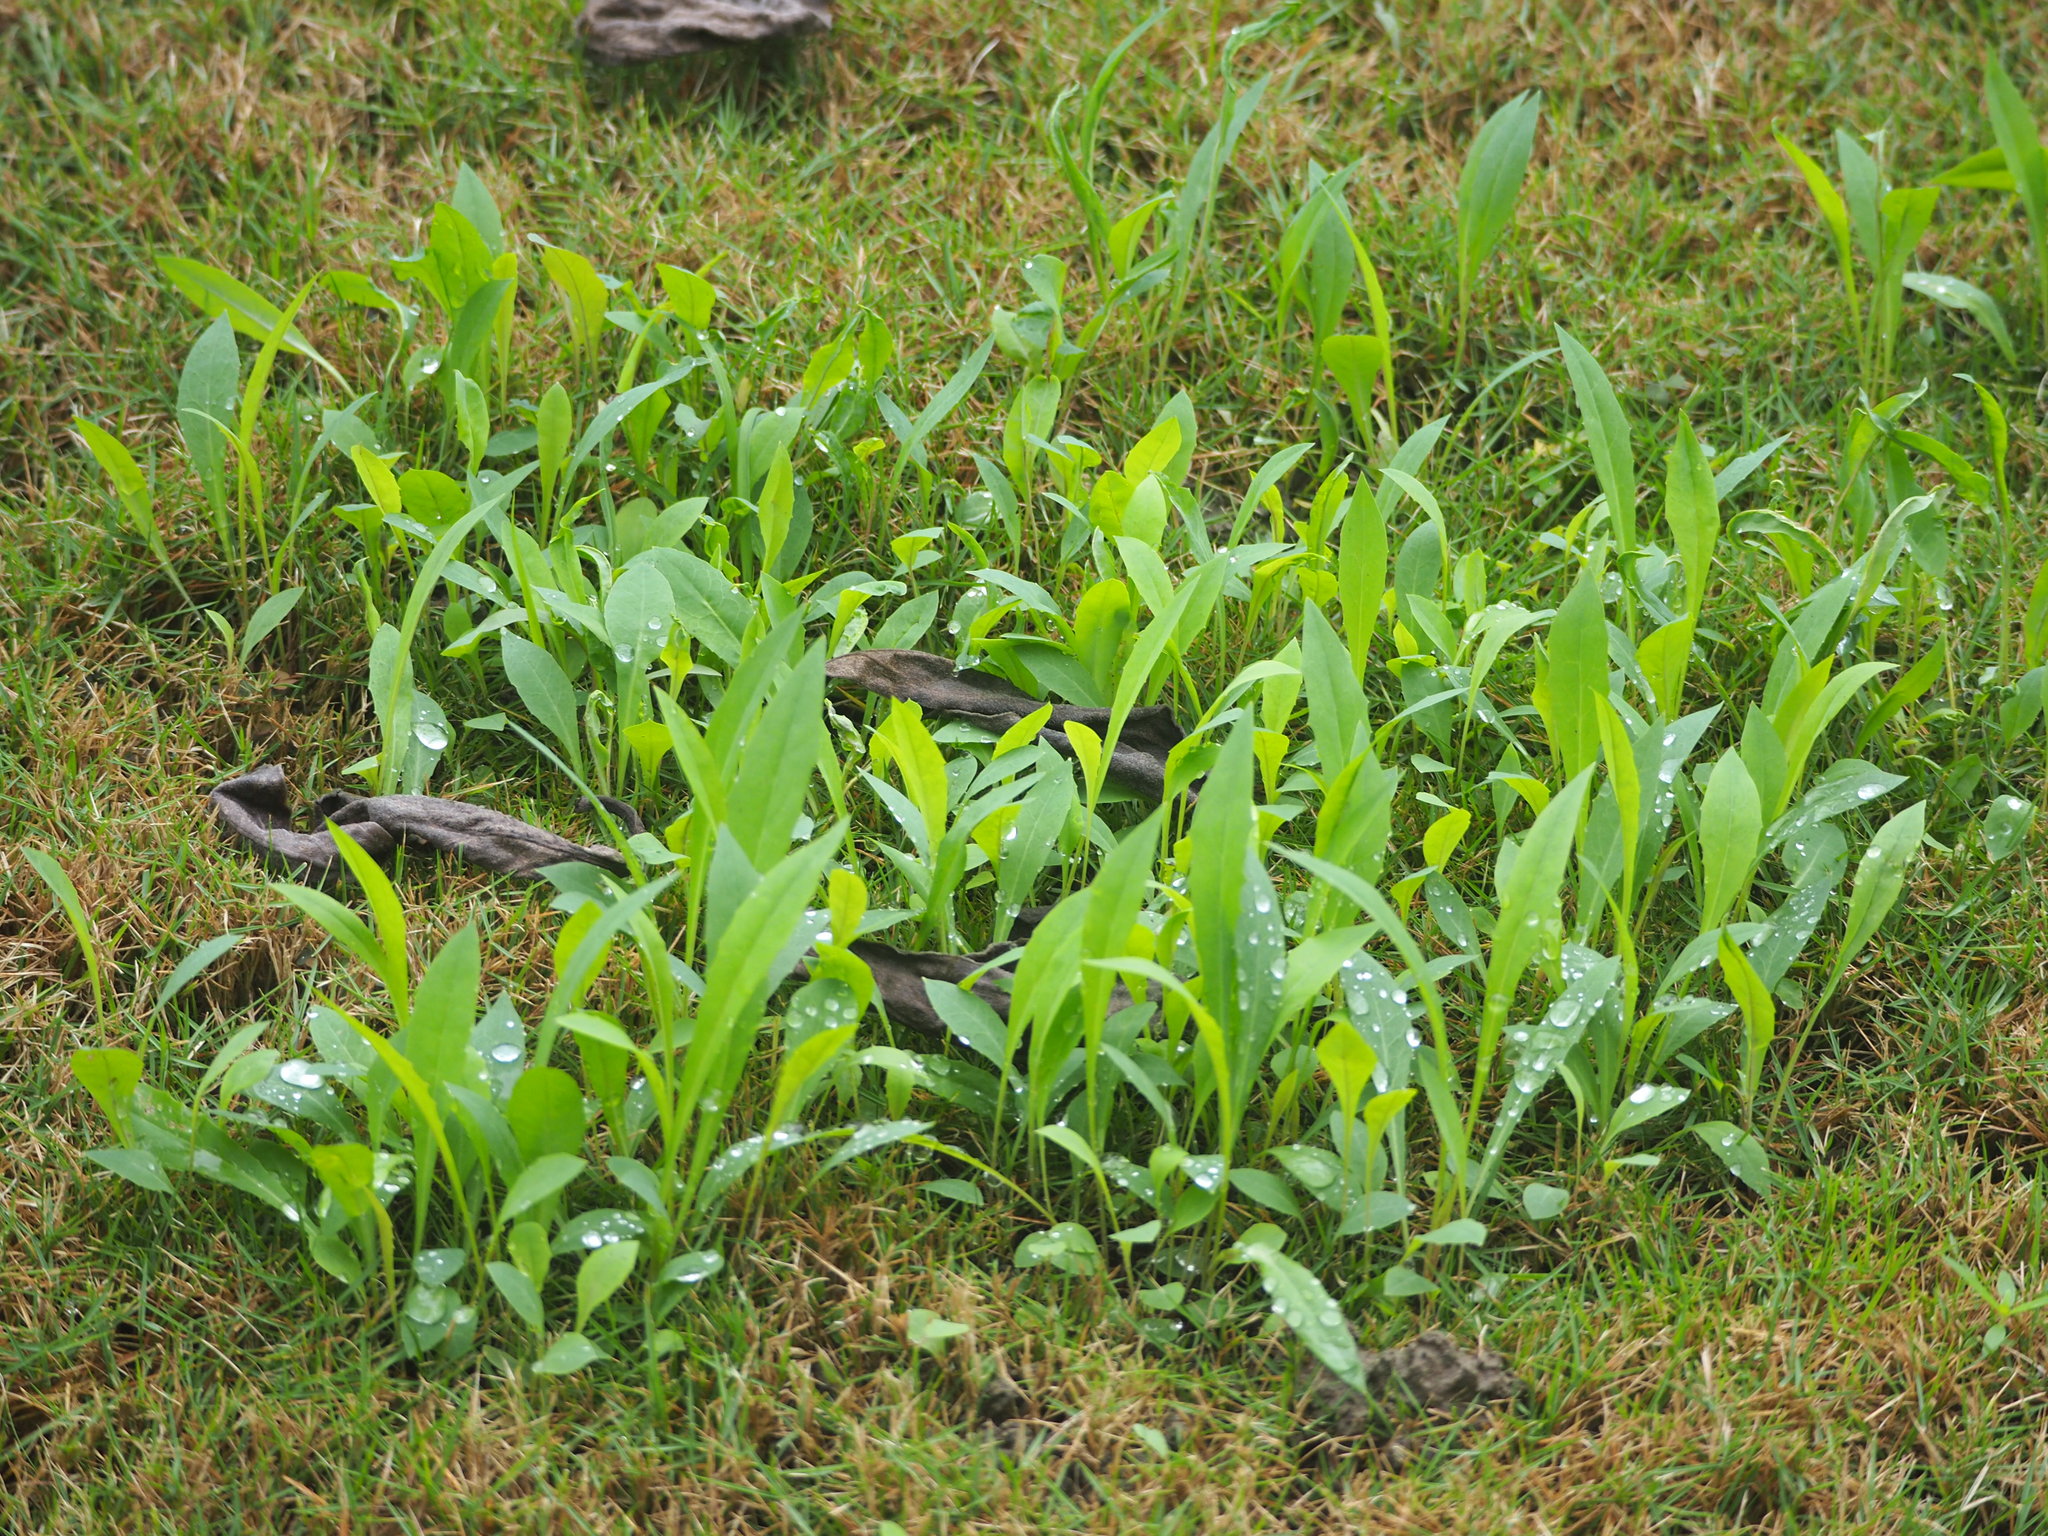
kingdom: Plantae
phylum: Tracheophyta
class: Magnoliopsida
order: Asterales
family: Asteraceae
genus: Ixeris
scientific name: Ixeris chinensis
